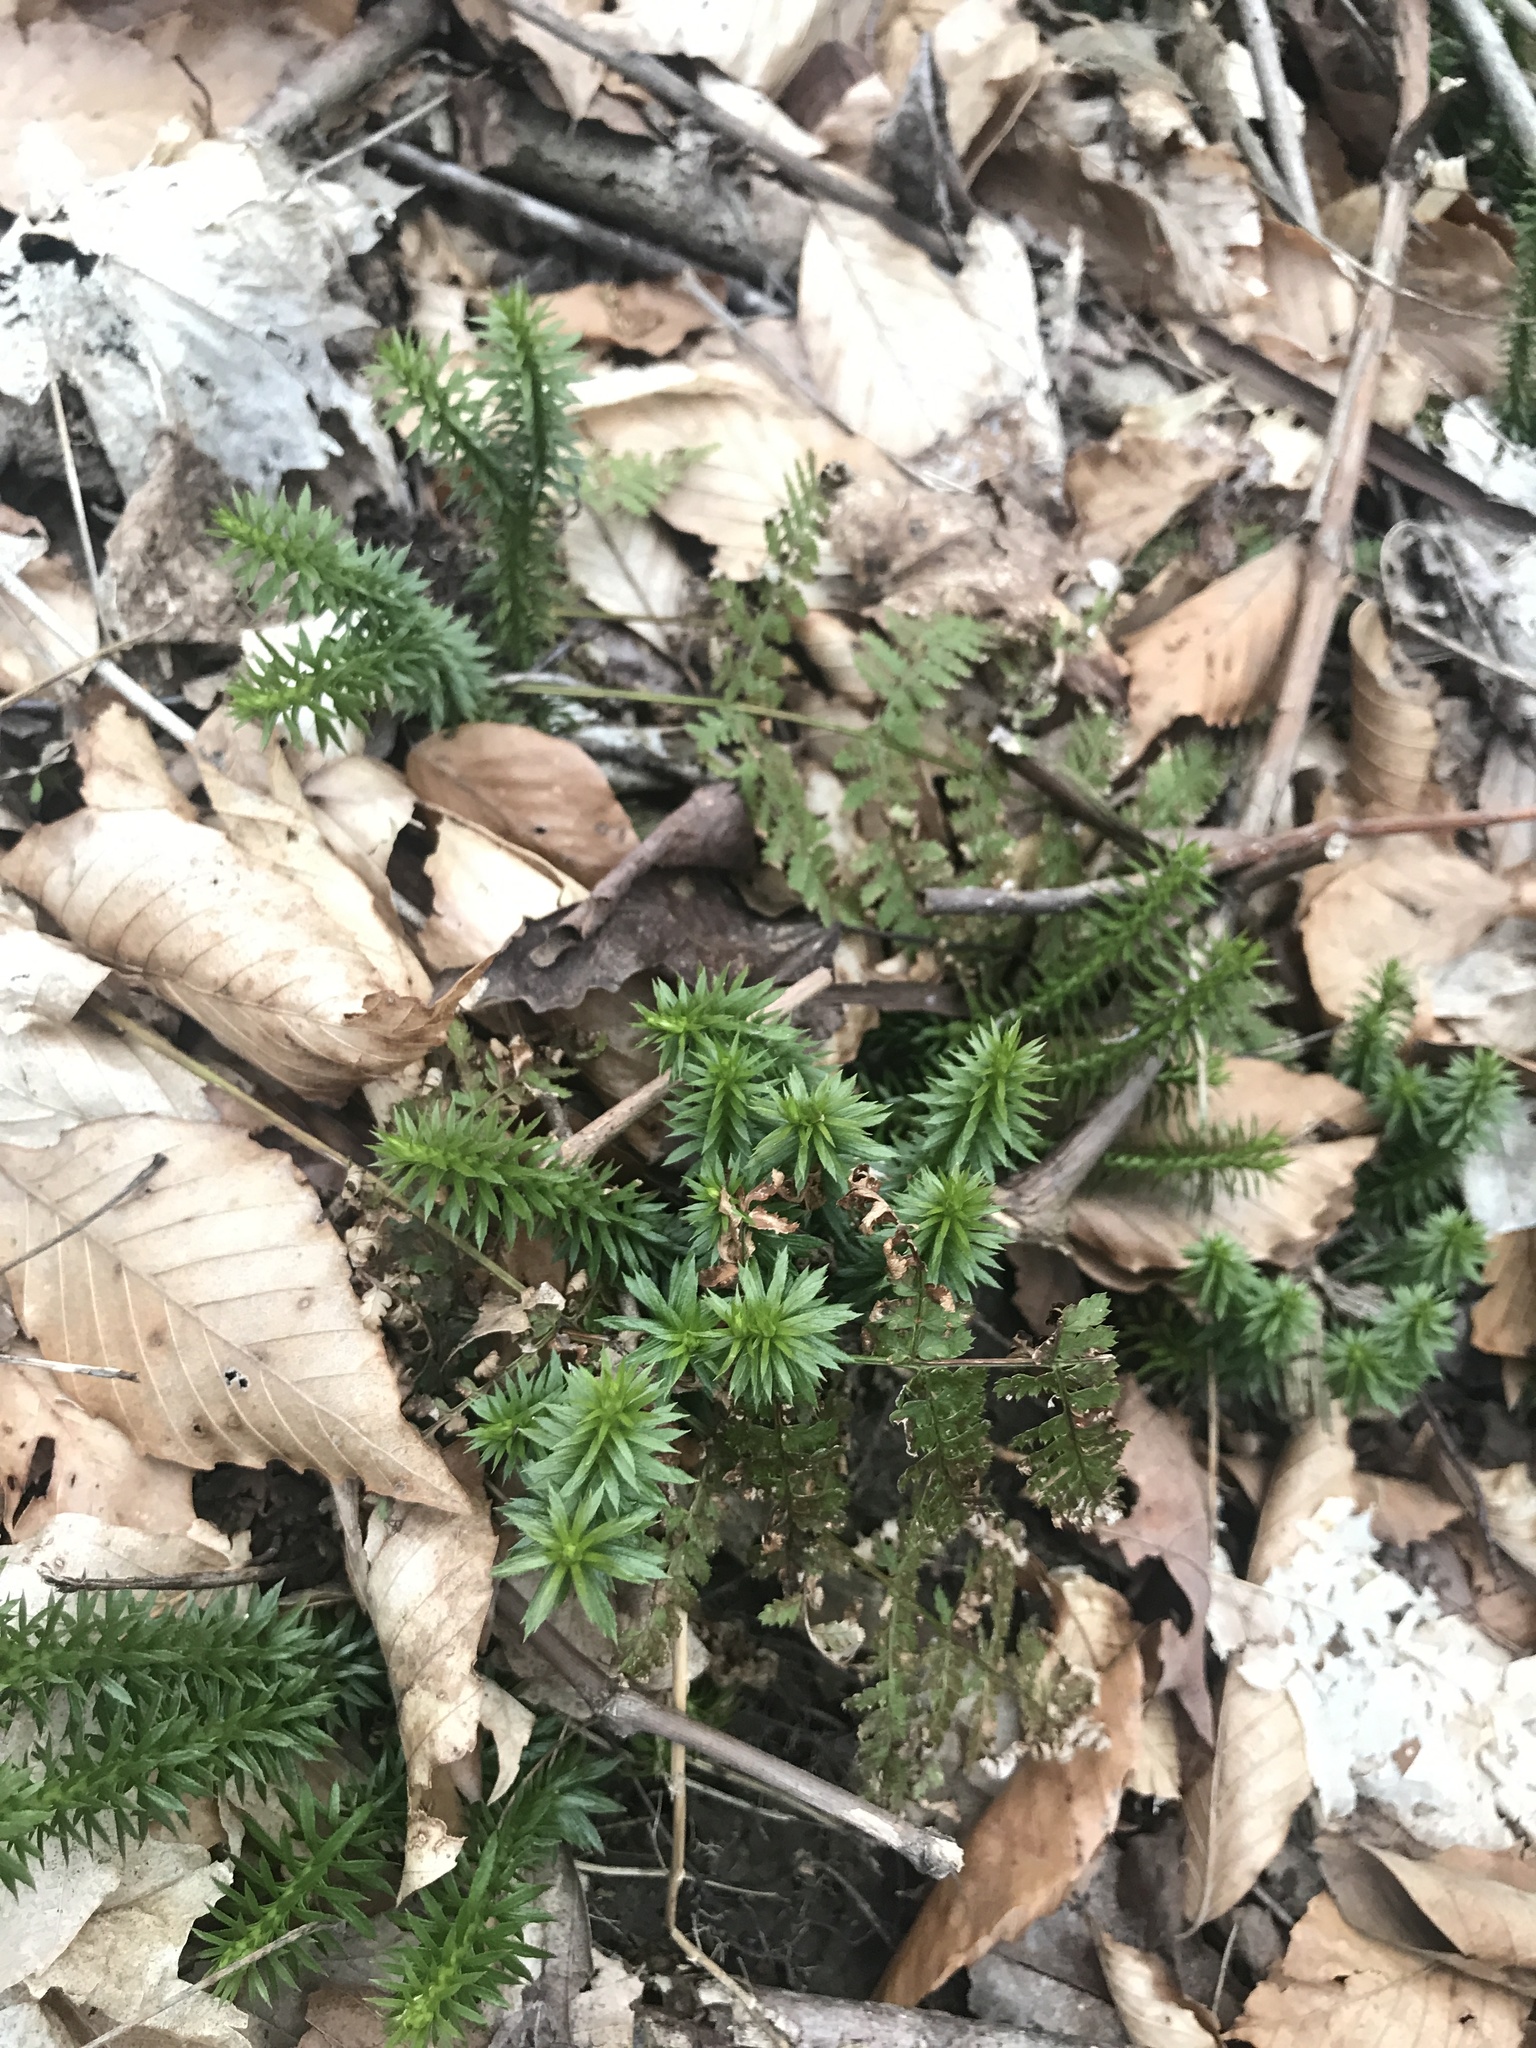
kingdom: Plantae
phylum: Tracheophyta
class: Lycopodiopsida
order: Lycopodiales
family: Lycopodiaceae
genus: Huperzia
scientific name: Huperzia lucidula
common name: Shining clubmoss
